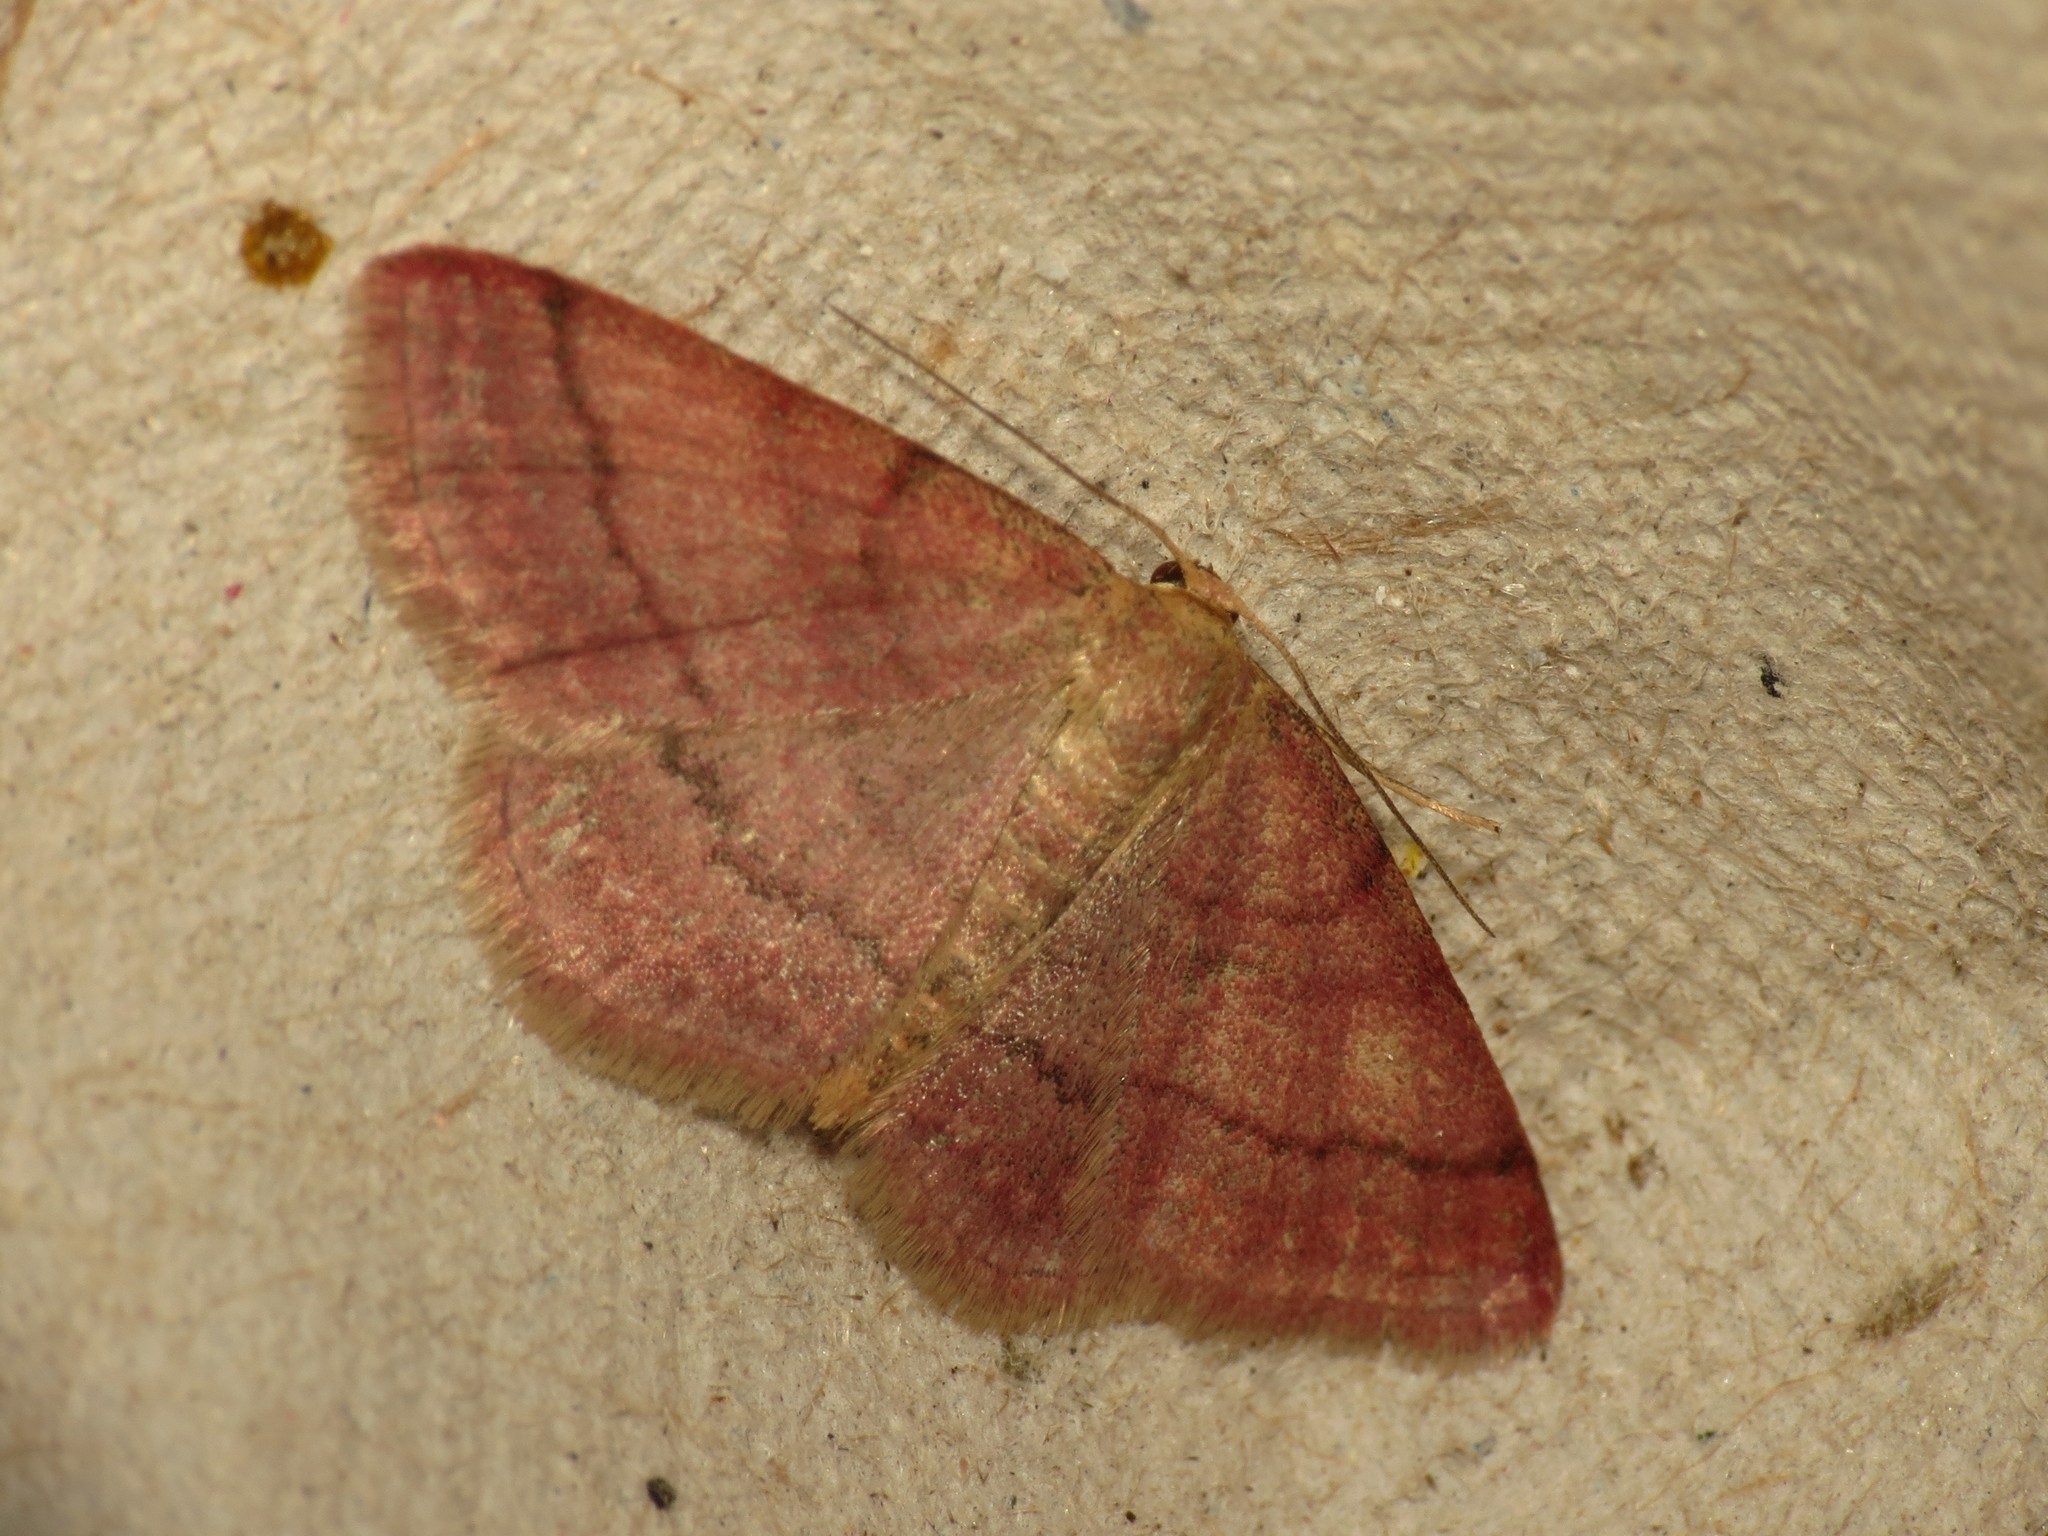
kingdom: Animalia
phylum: Arthropoda
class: Insecta
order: Lepidoptera
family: Geometridae
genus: Scopula
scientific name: Scopula rubiginata
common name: Tawny wave
